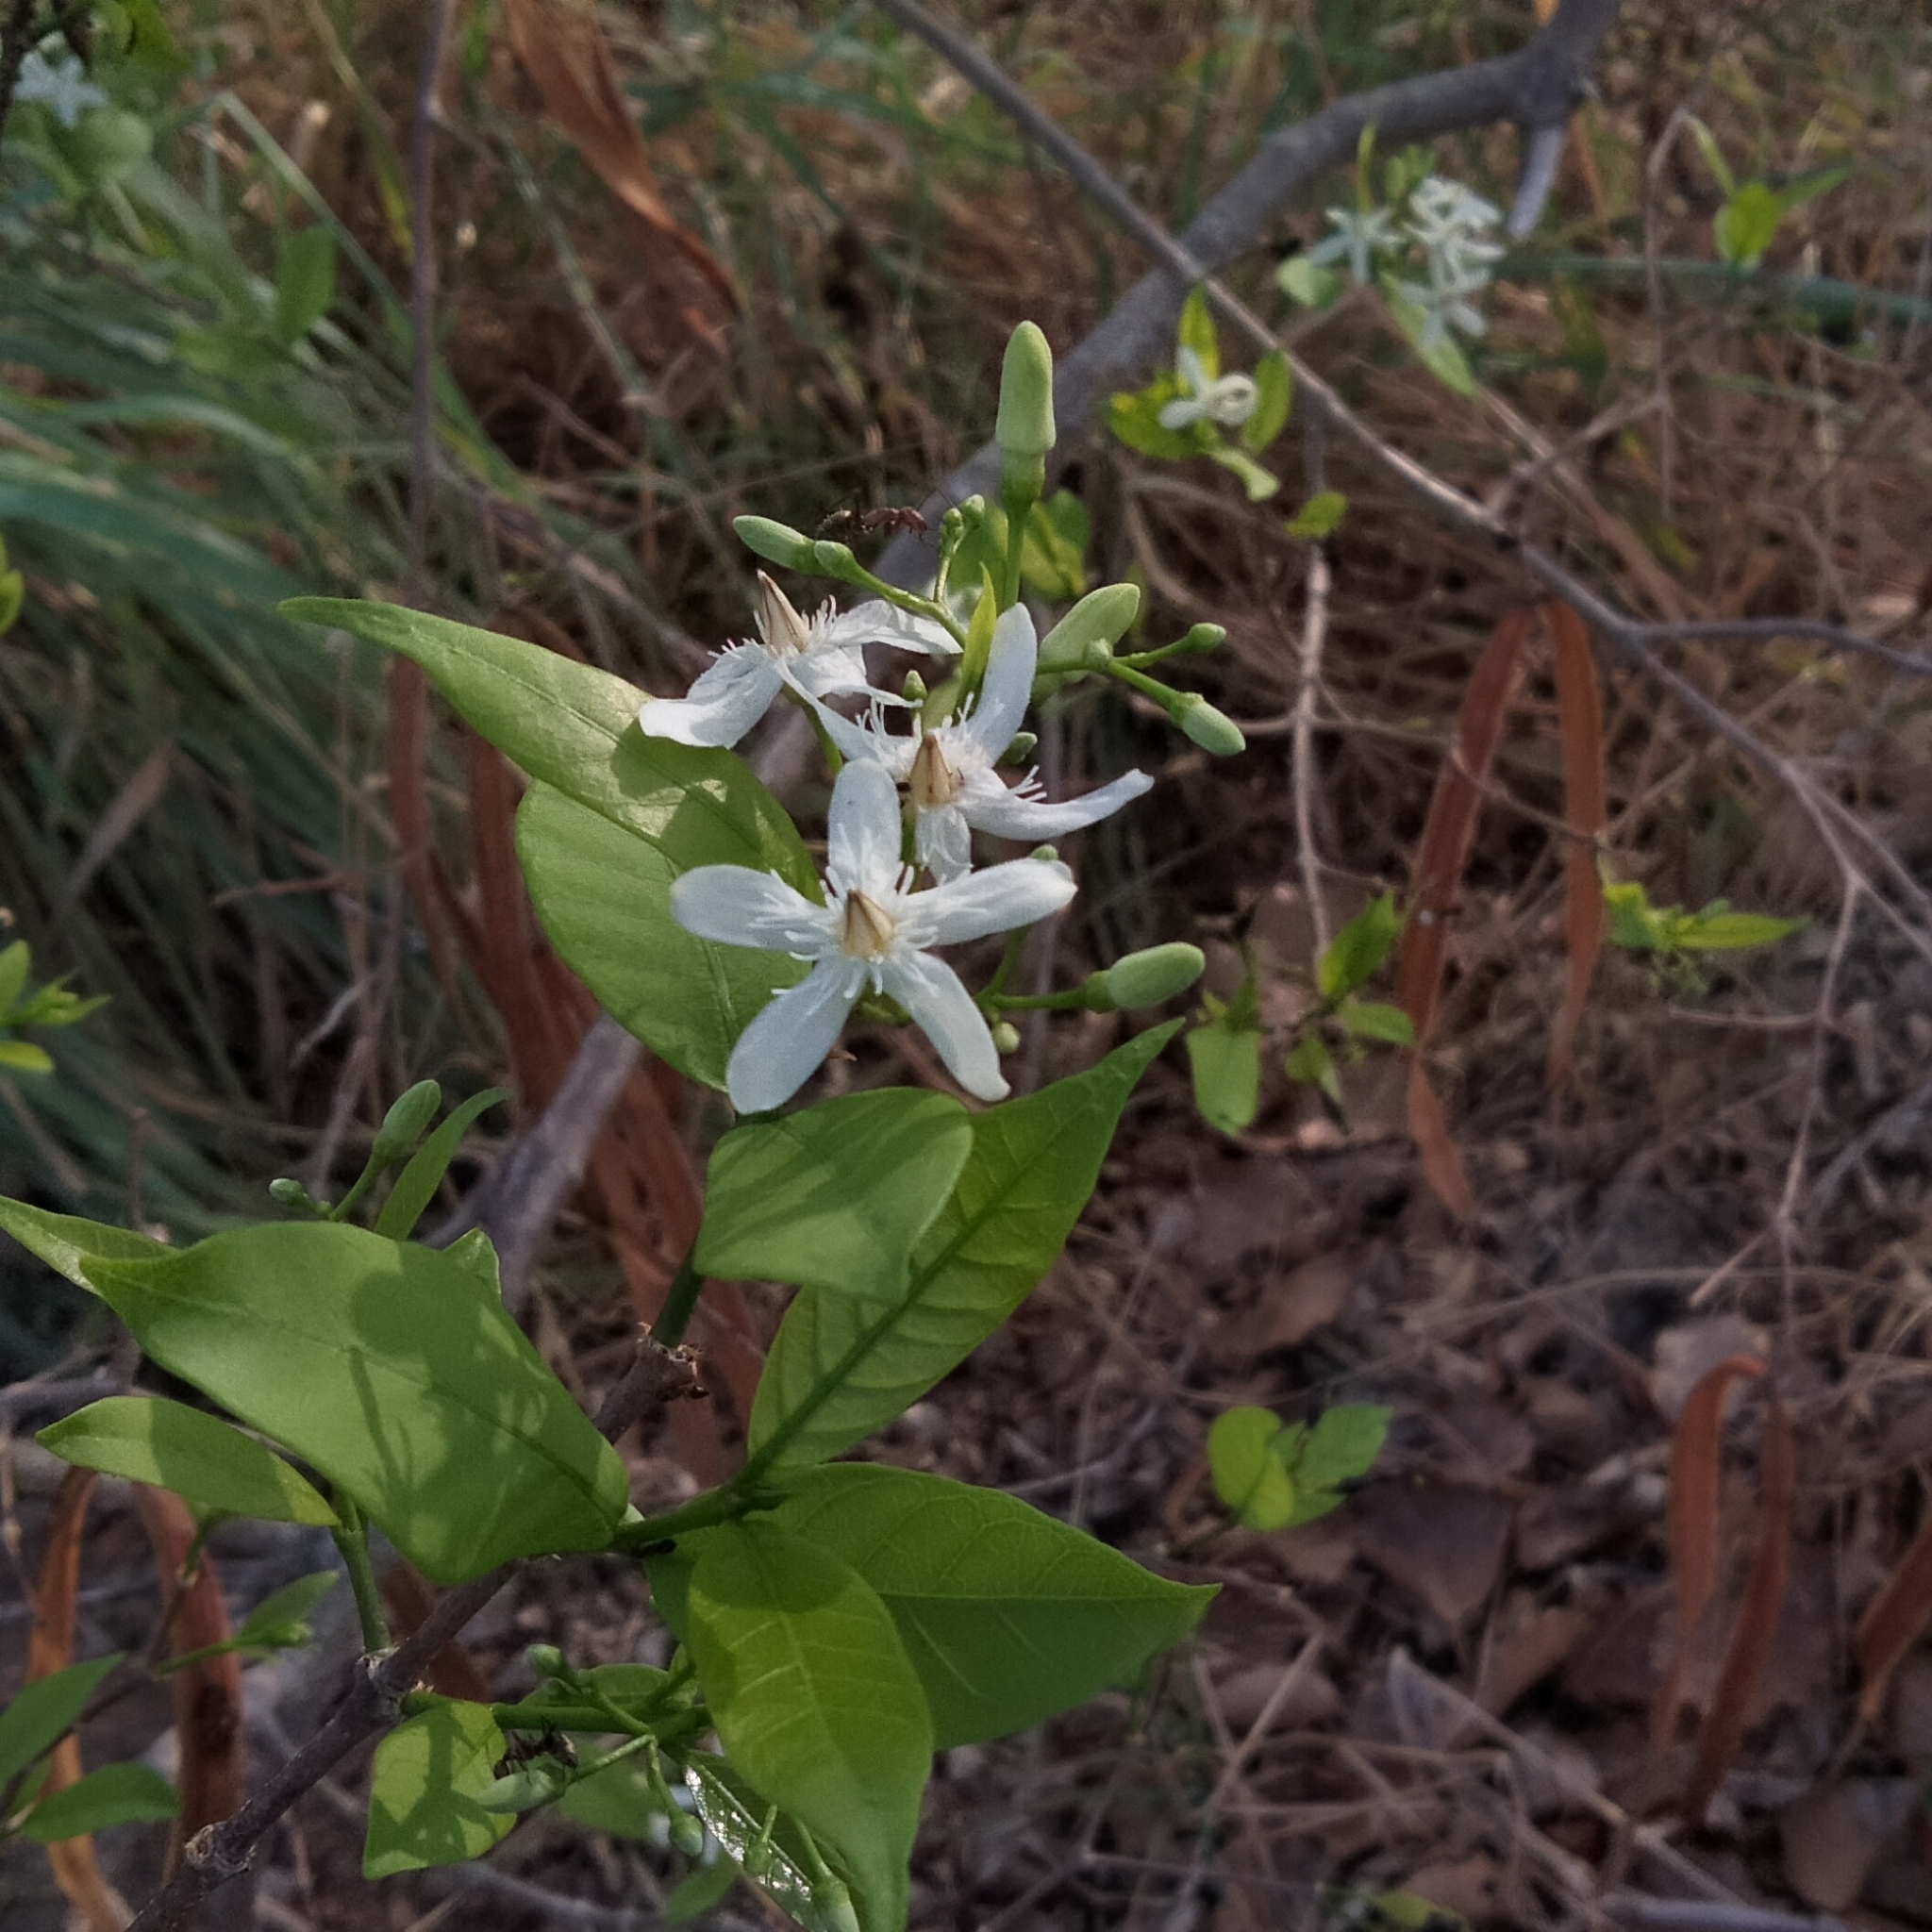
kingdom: Plantae
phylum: Tracheophyta
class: Magnoliopsida
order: Gentianales
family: Apocynaceae
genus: Wrightia
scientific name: Wrightia tinctoria
